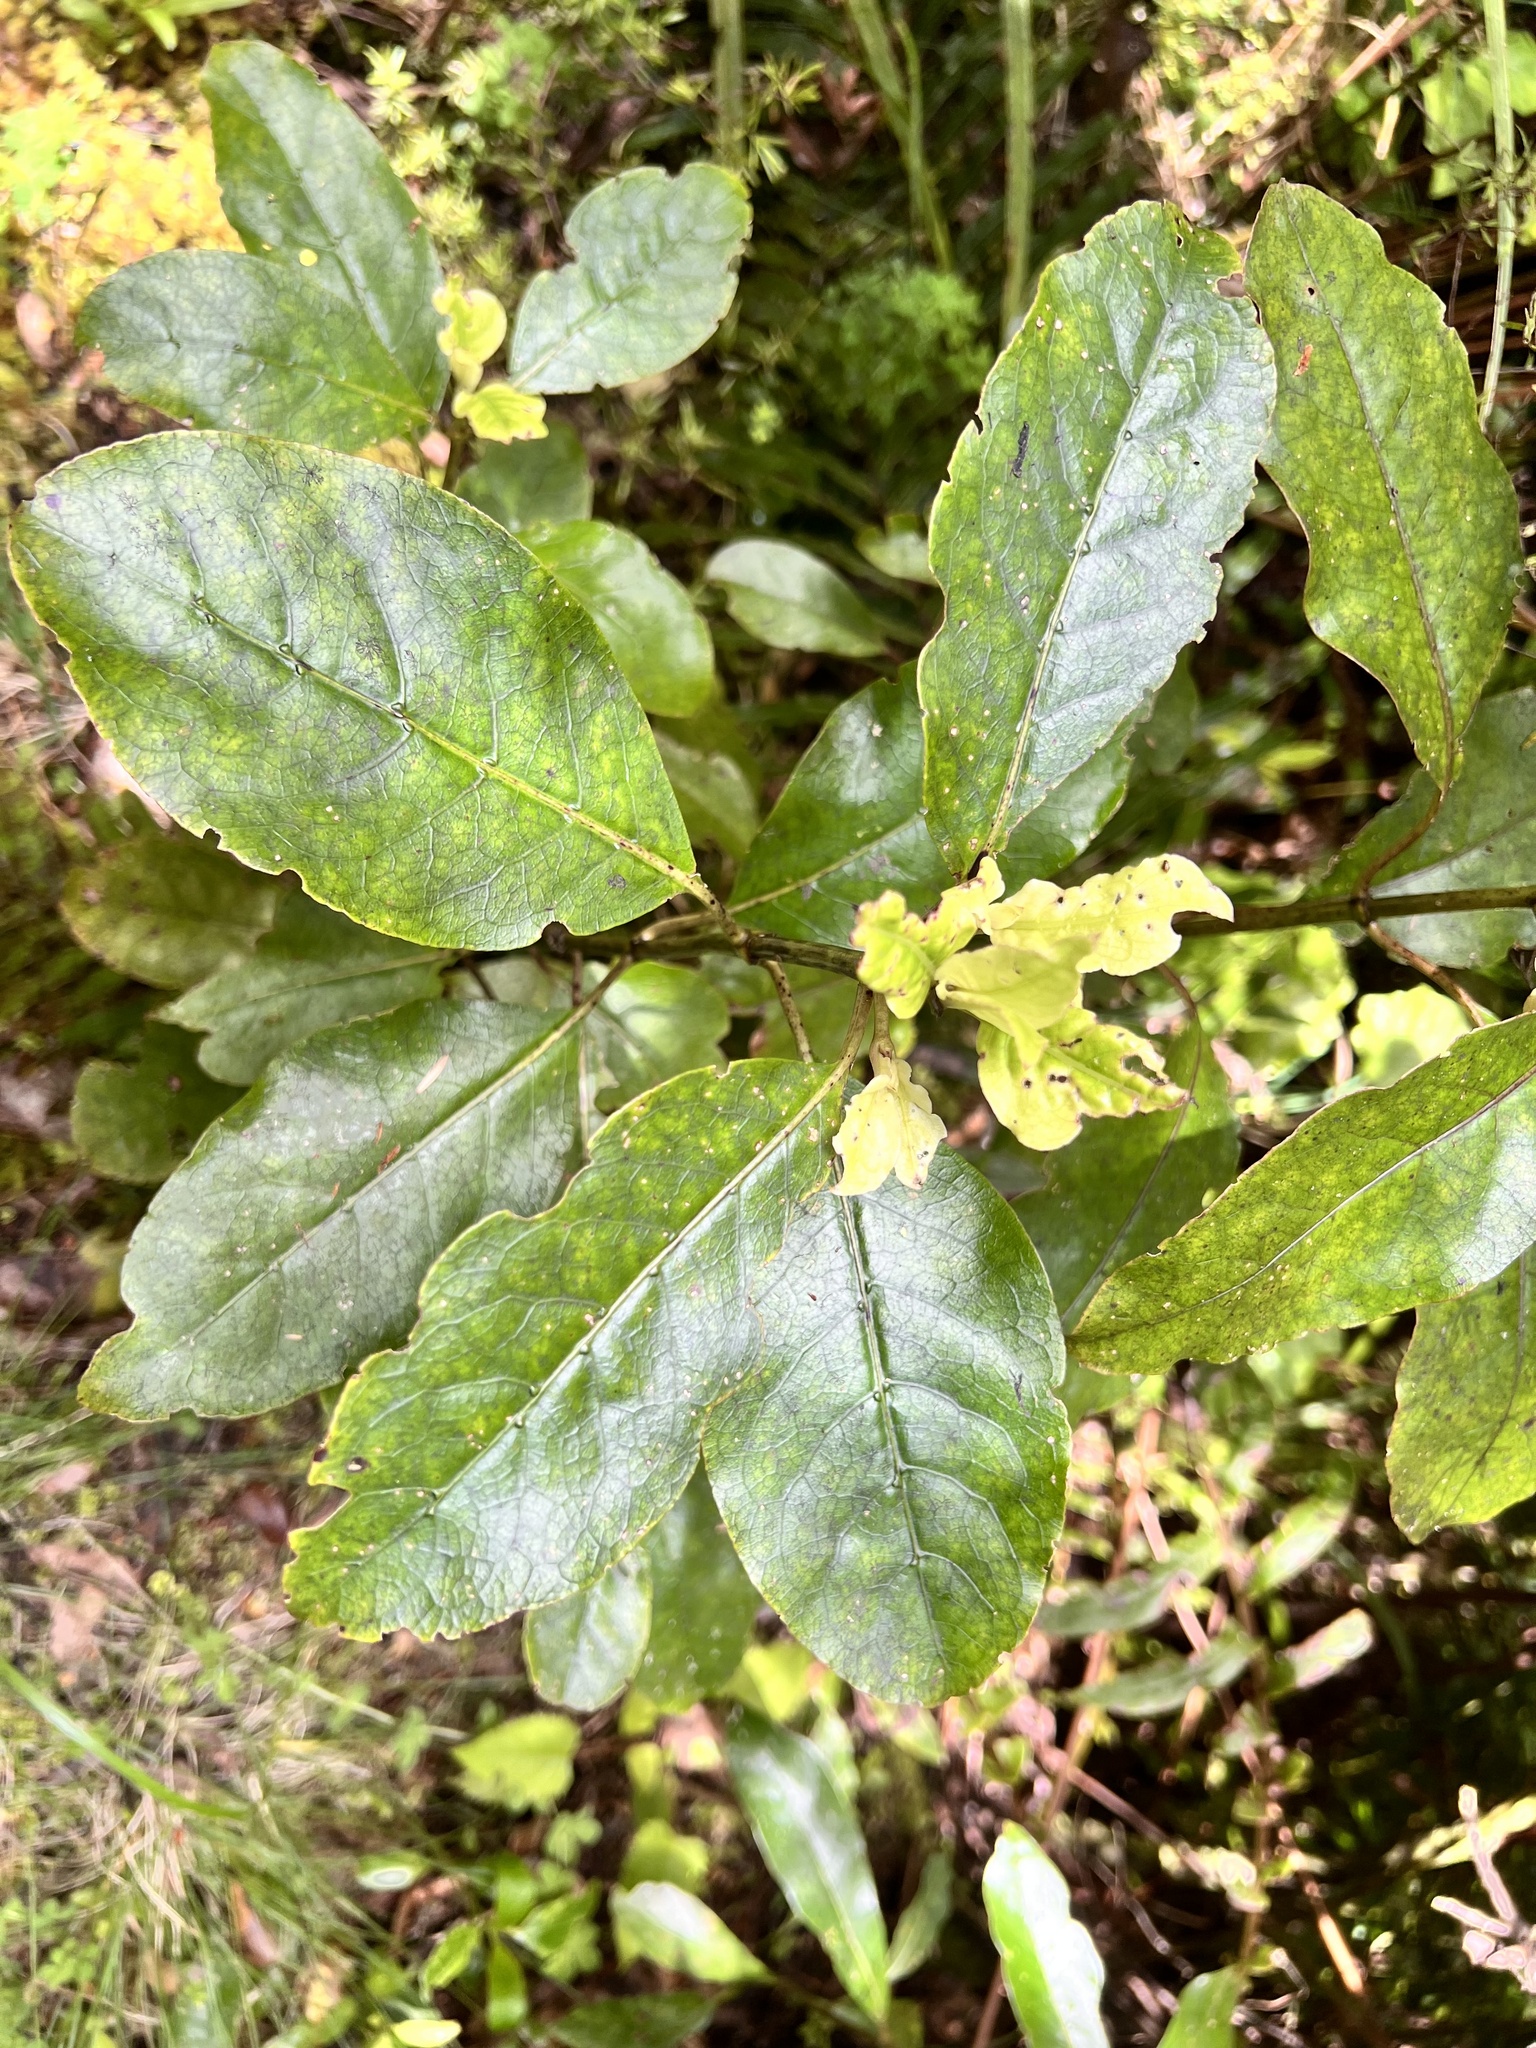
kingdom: Plantae
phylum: Tracheophyta
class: Magnoliopsida
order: Gentianales
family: Rubiaceae
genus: Coprosma
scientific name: Coprosma autumnalis
